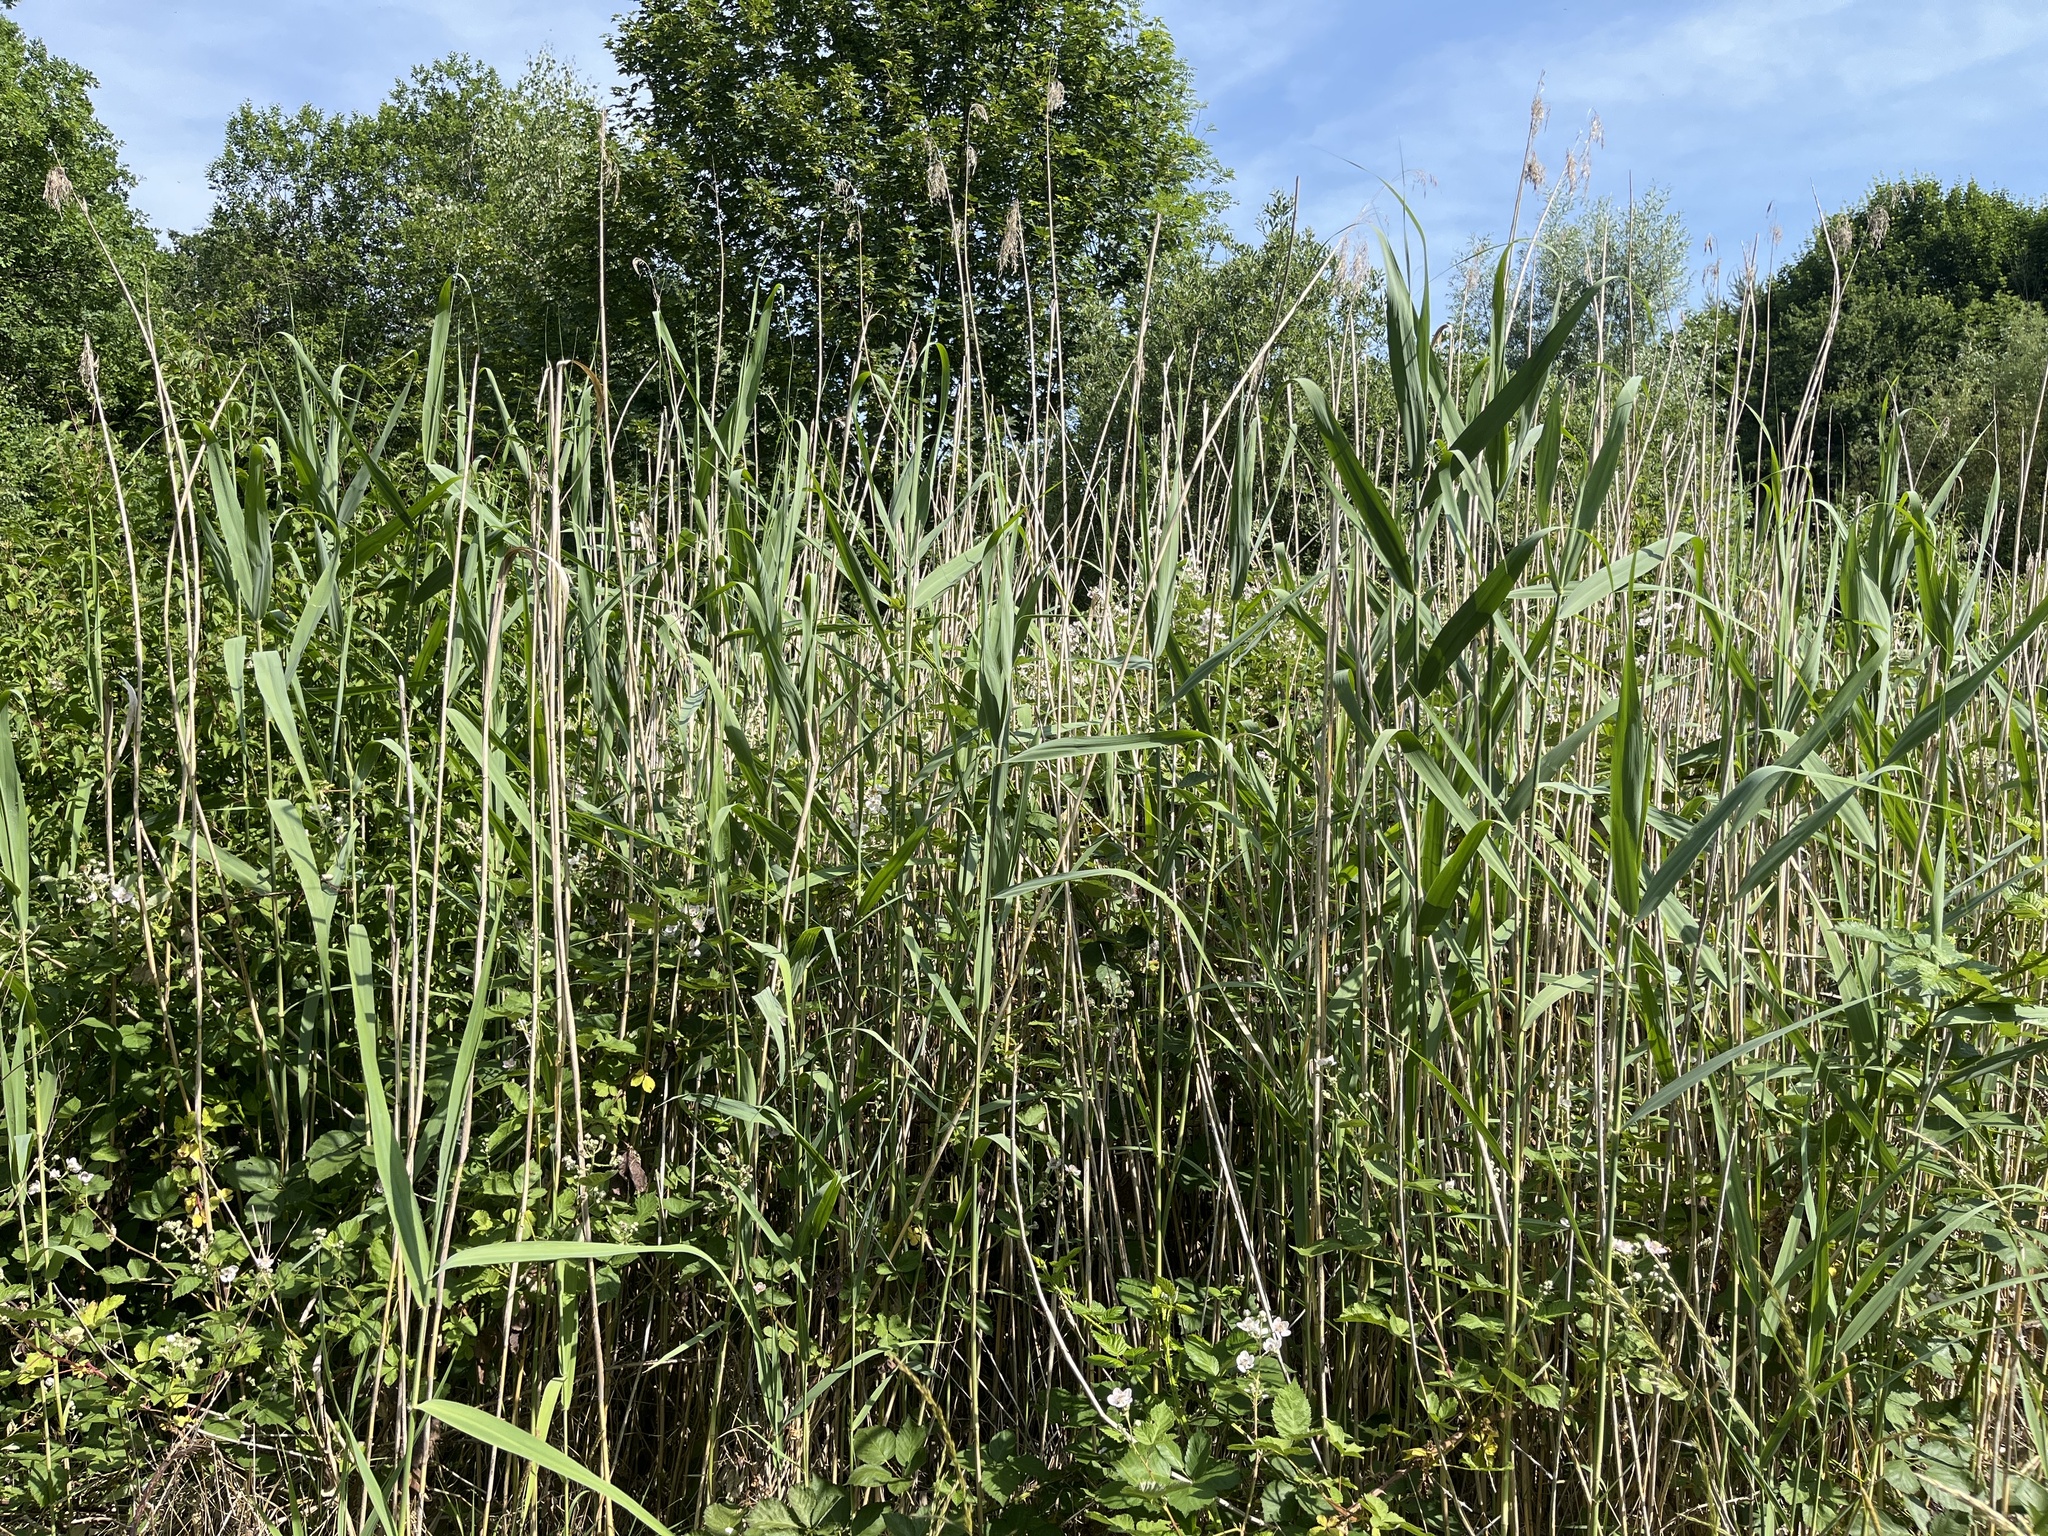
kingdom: Plantae
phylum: Tracheophyta
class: Liliopsida
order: Poales
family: Poaceae
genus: Phragmites
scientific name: Phragmites australis
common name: Common reed
